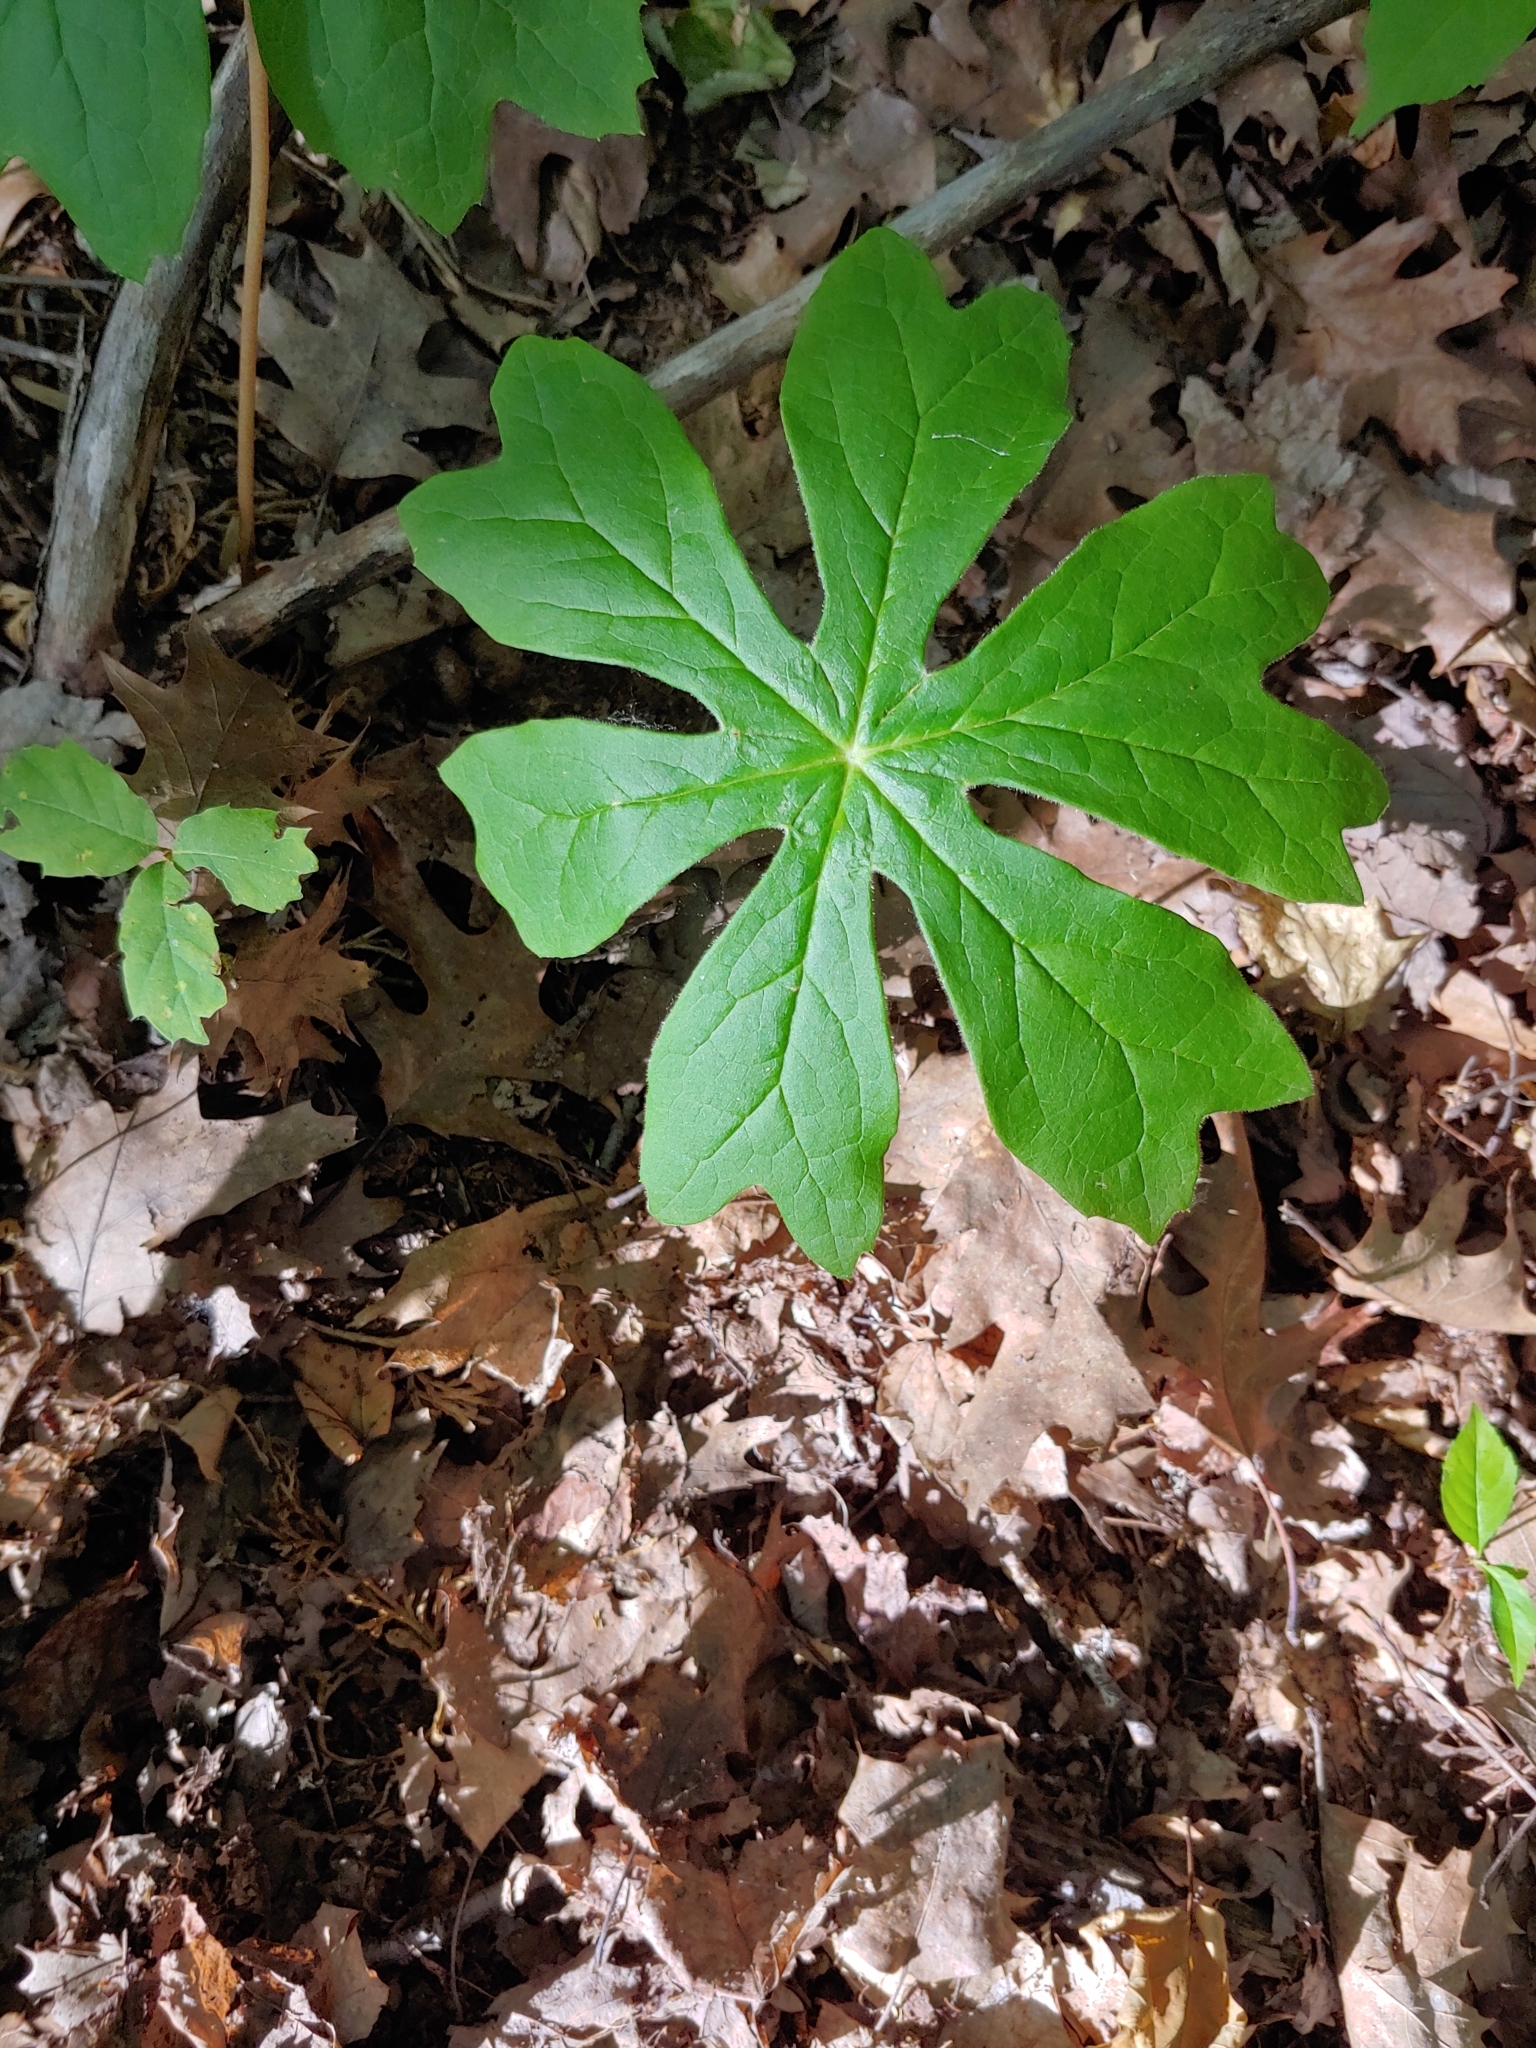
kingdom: Plantae
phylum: Tracheophyta
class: Magnoliopsida
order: Ranunculales
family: Berberidaceae
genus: Podophyllum
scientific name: Podophyllum peltatum
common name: Wild mandrake
